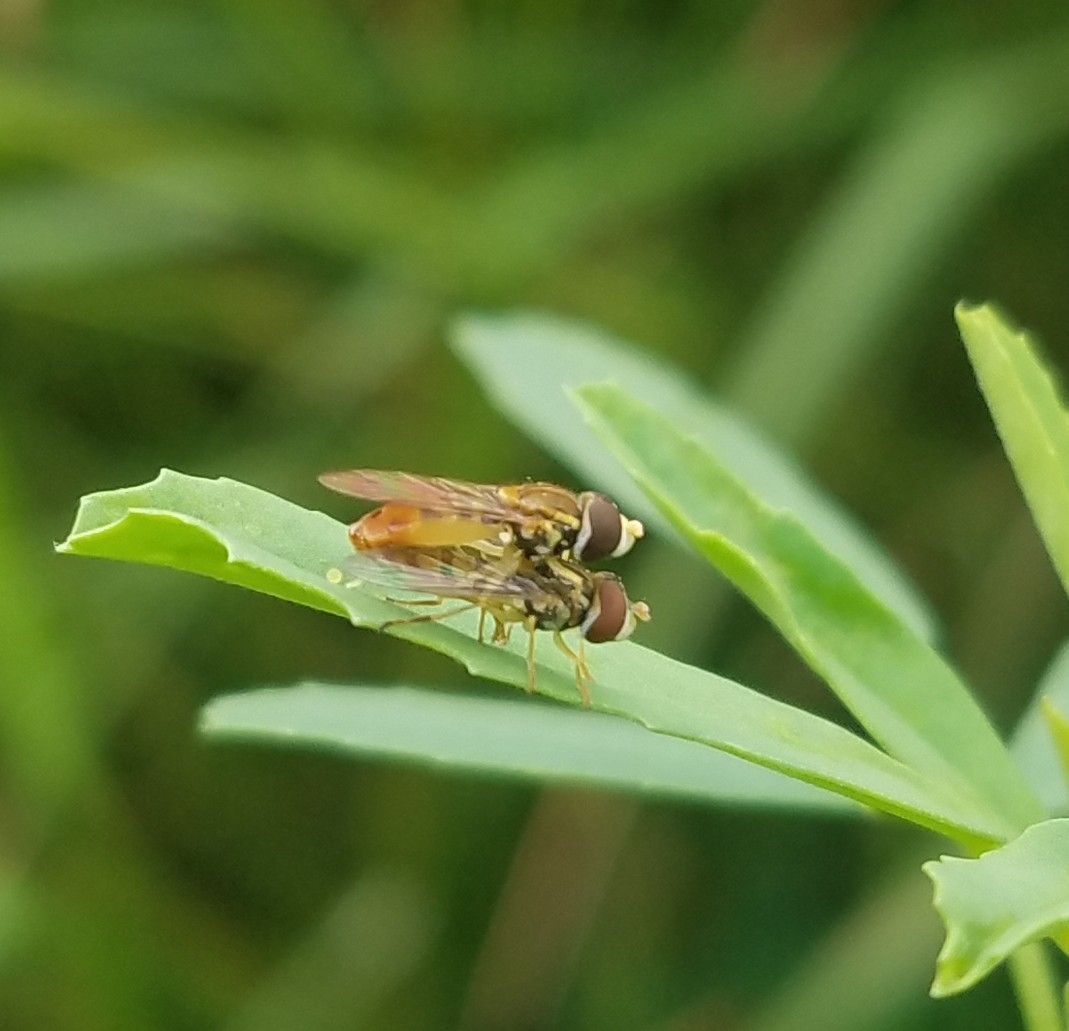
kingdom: Animalia
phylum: Arthropoda
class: Insecta
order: Diptera
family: Syrphidae
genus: Toxomerus
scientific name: Toxomerus marginatus
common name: Syrphid fly
